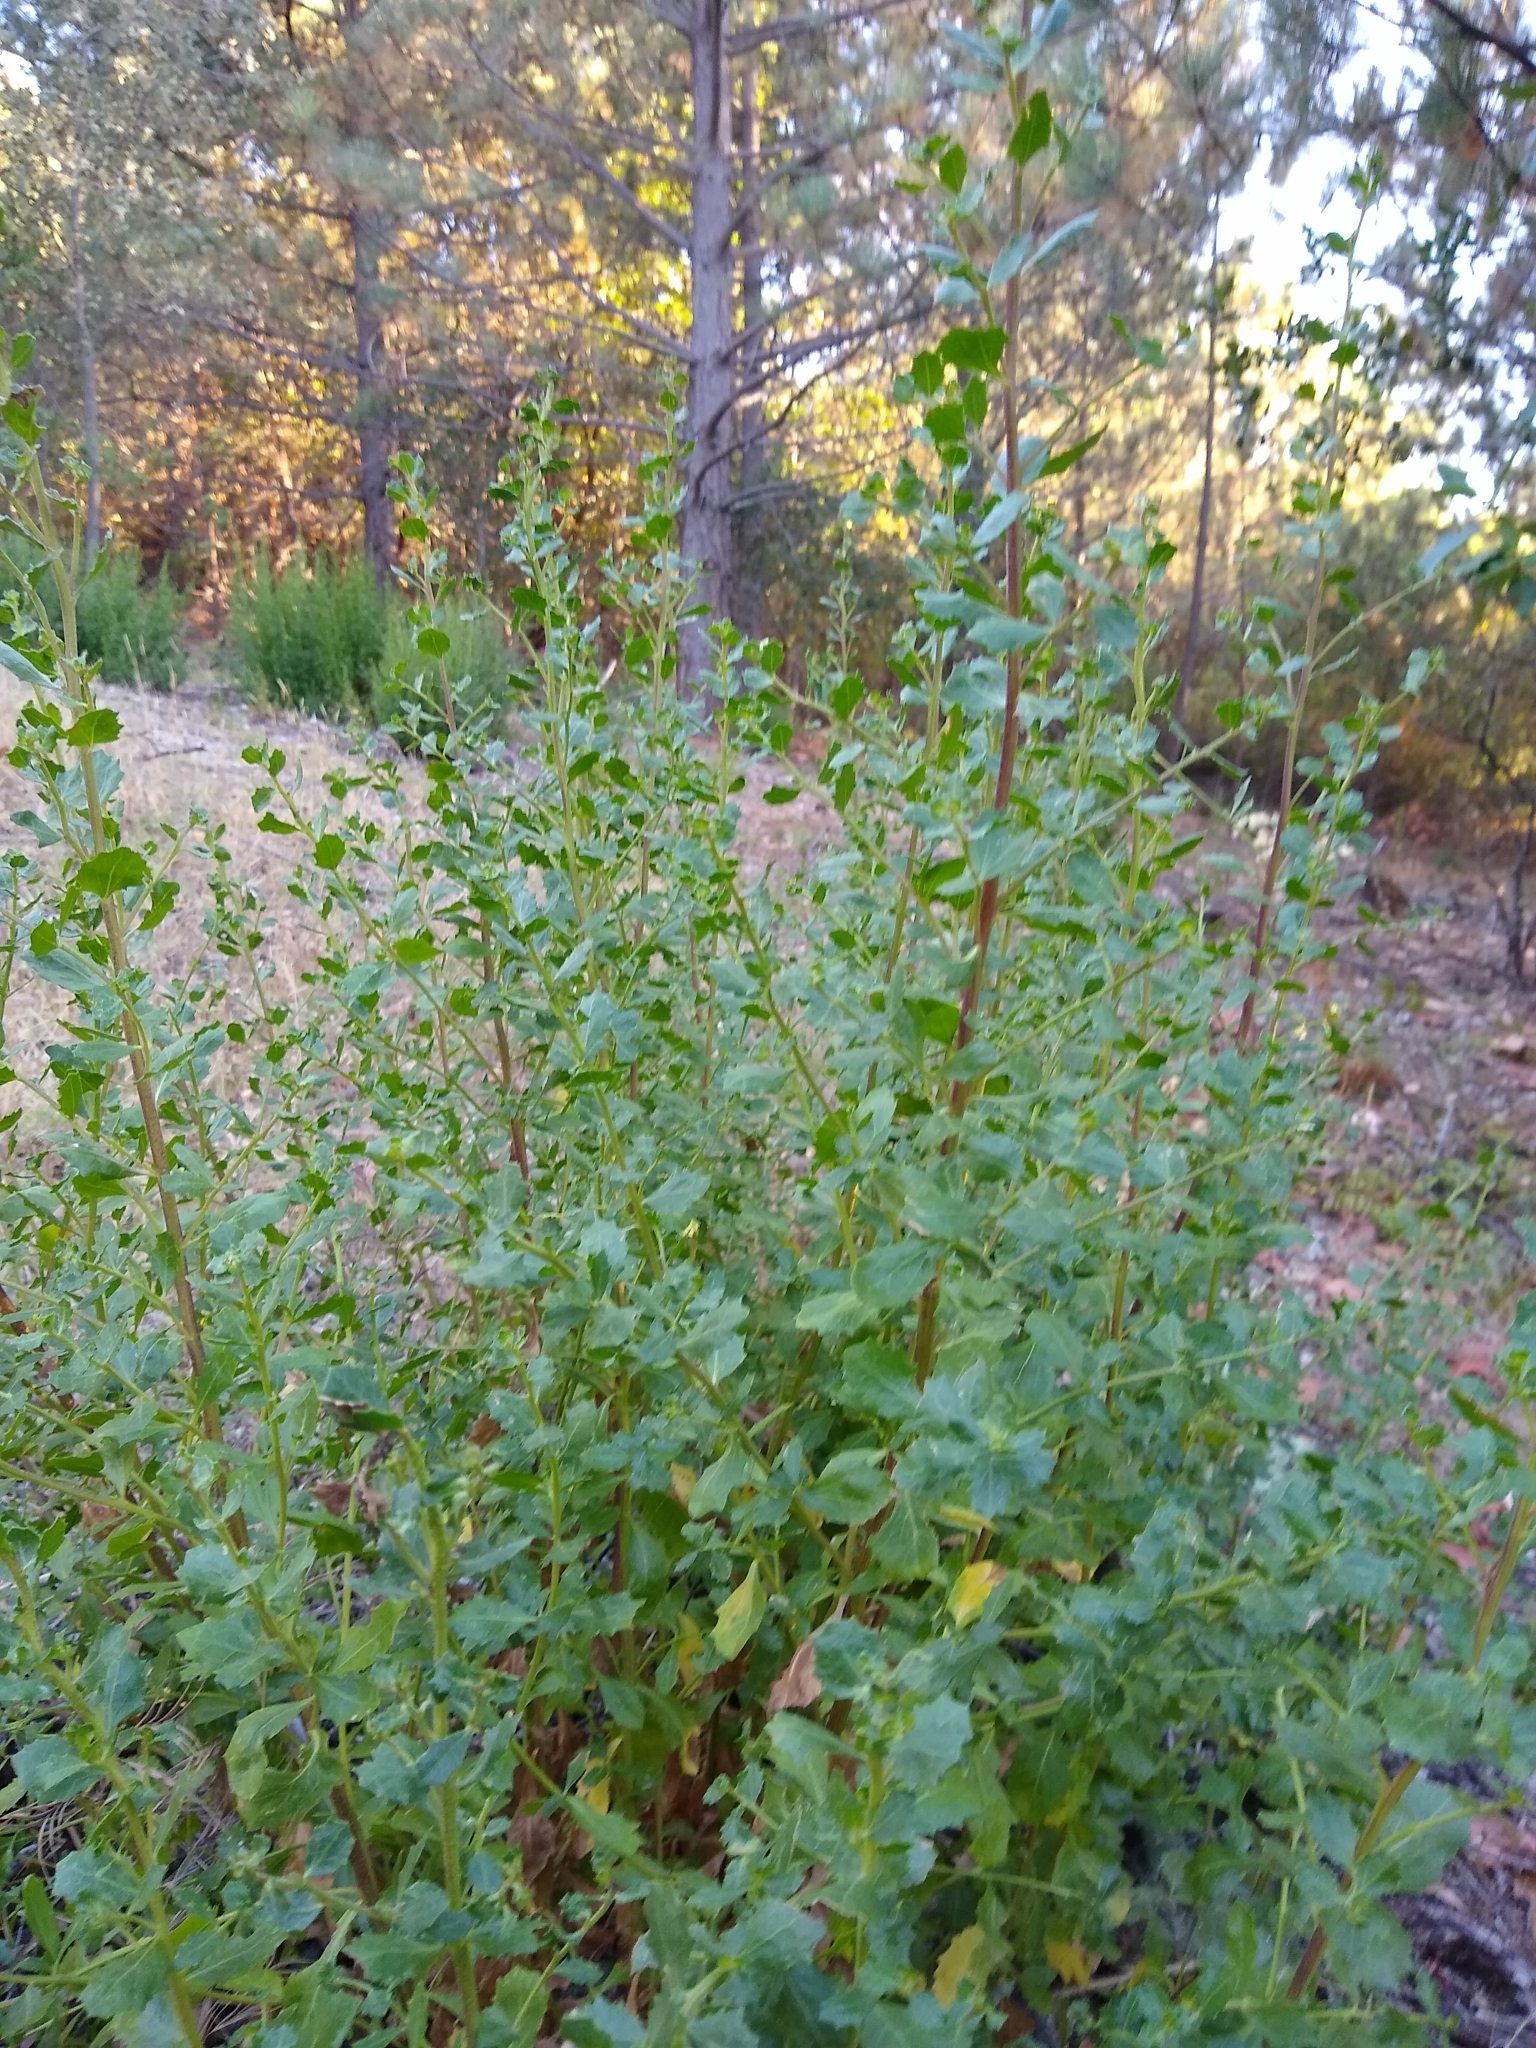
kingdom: Plantae
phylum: Tracheophyta
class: Magnoliopsida
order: Asterales
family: Asteraceae
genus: Baccharis
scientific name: Baccharis pilularis
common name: Coyotebrush
